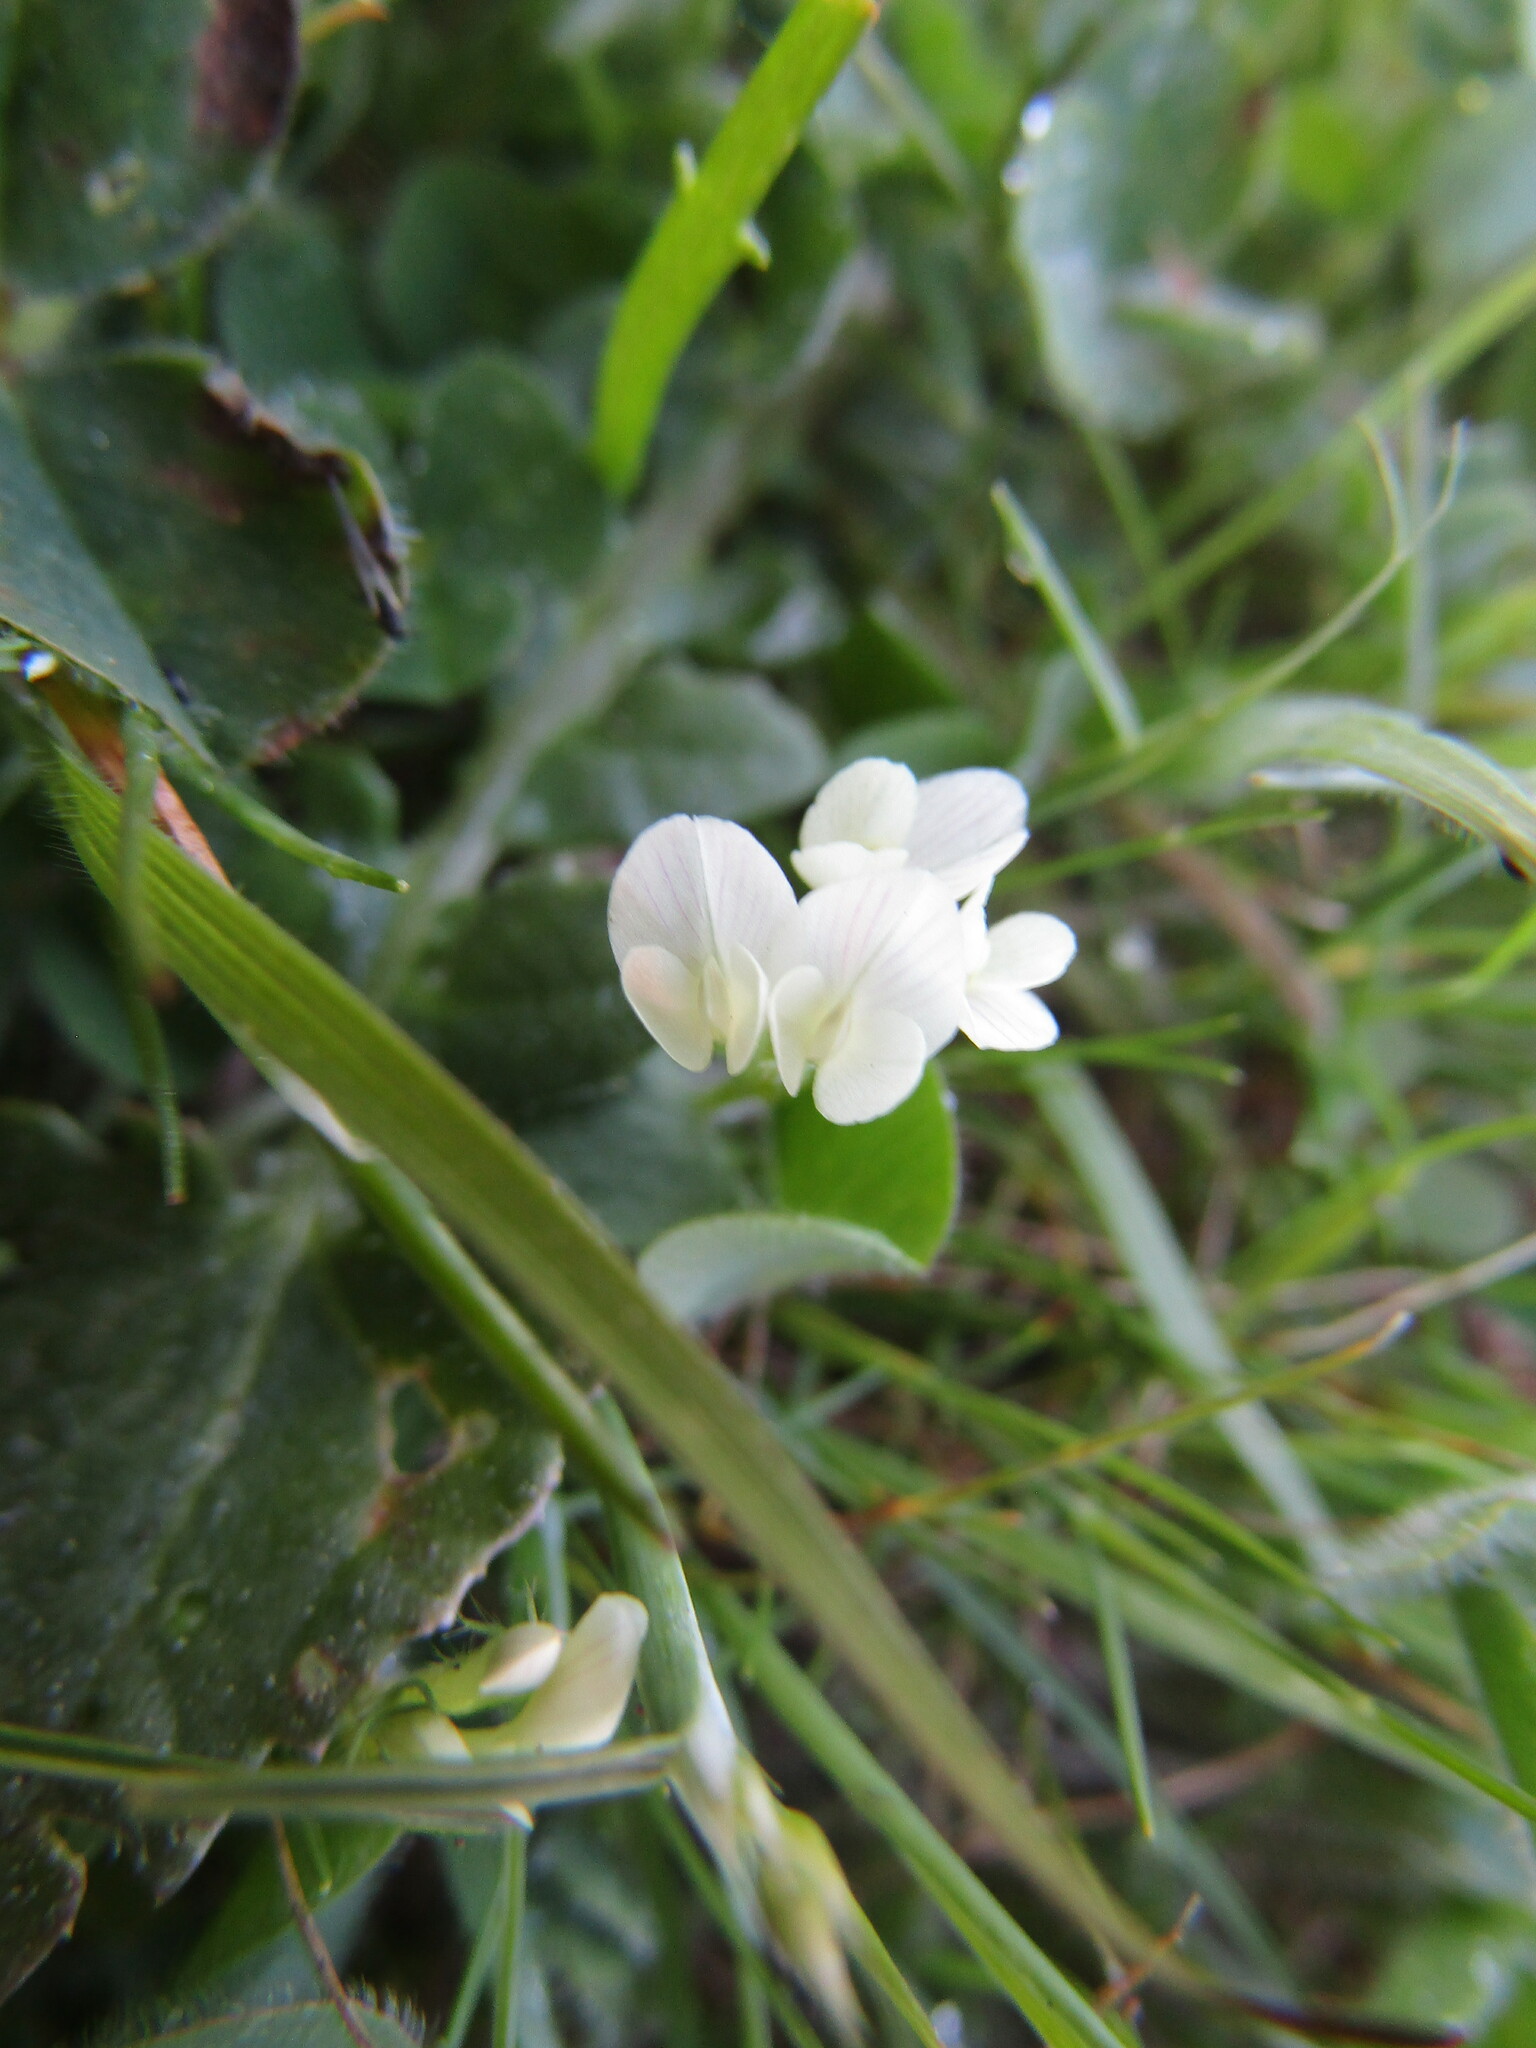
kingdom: Plantae
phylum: Tracheophyta
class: Magnoliopsida
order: Fabales
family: Fabaceae
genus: Trifolium
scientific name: Trifolium subterraneum
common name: Subterranean clover
